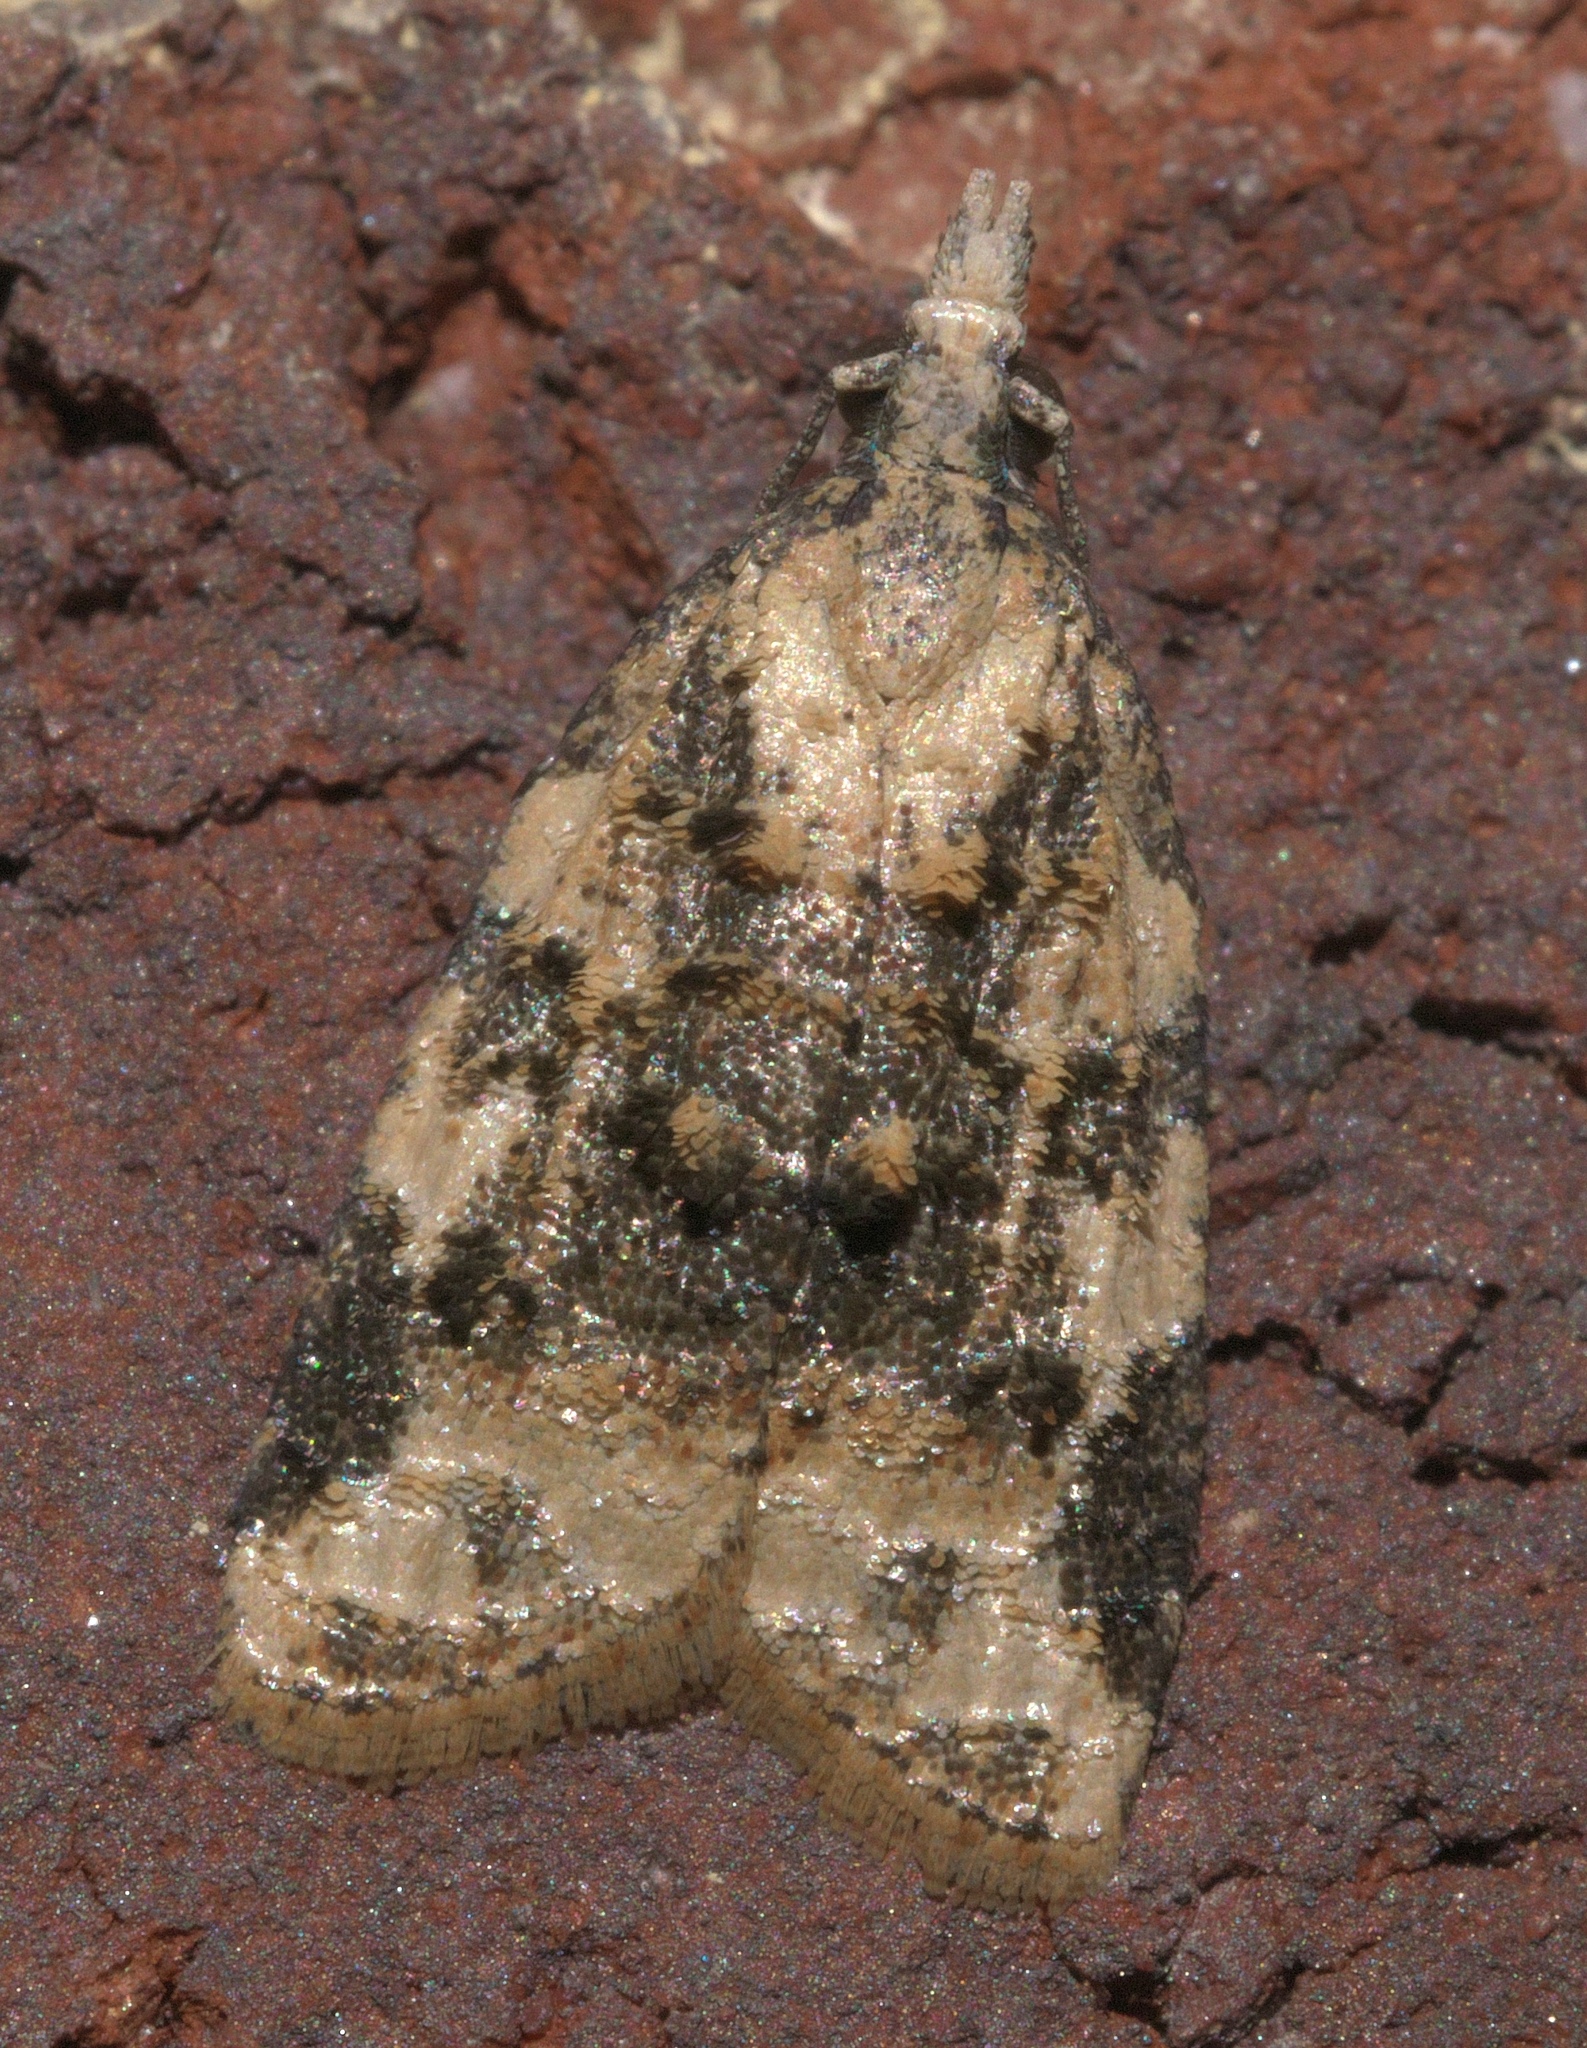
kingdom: Animalia
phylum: Arthropoda
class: Insecta
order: Lepidoptera
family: Tortricidae
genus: Platynota
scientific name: Platynota exasperatana
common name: Exasperating platynota moth
